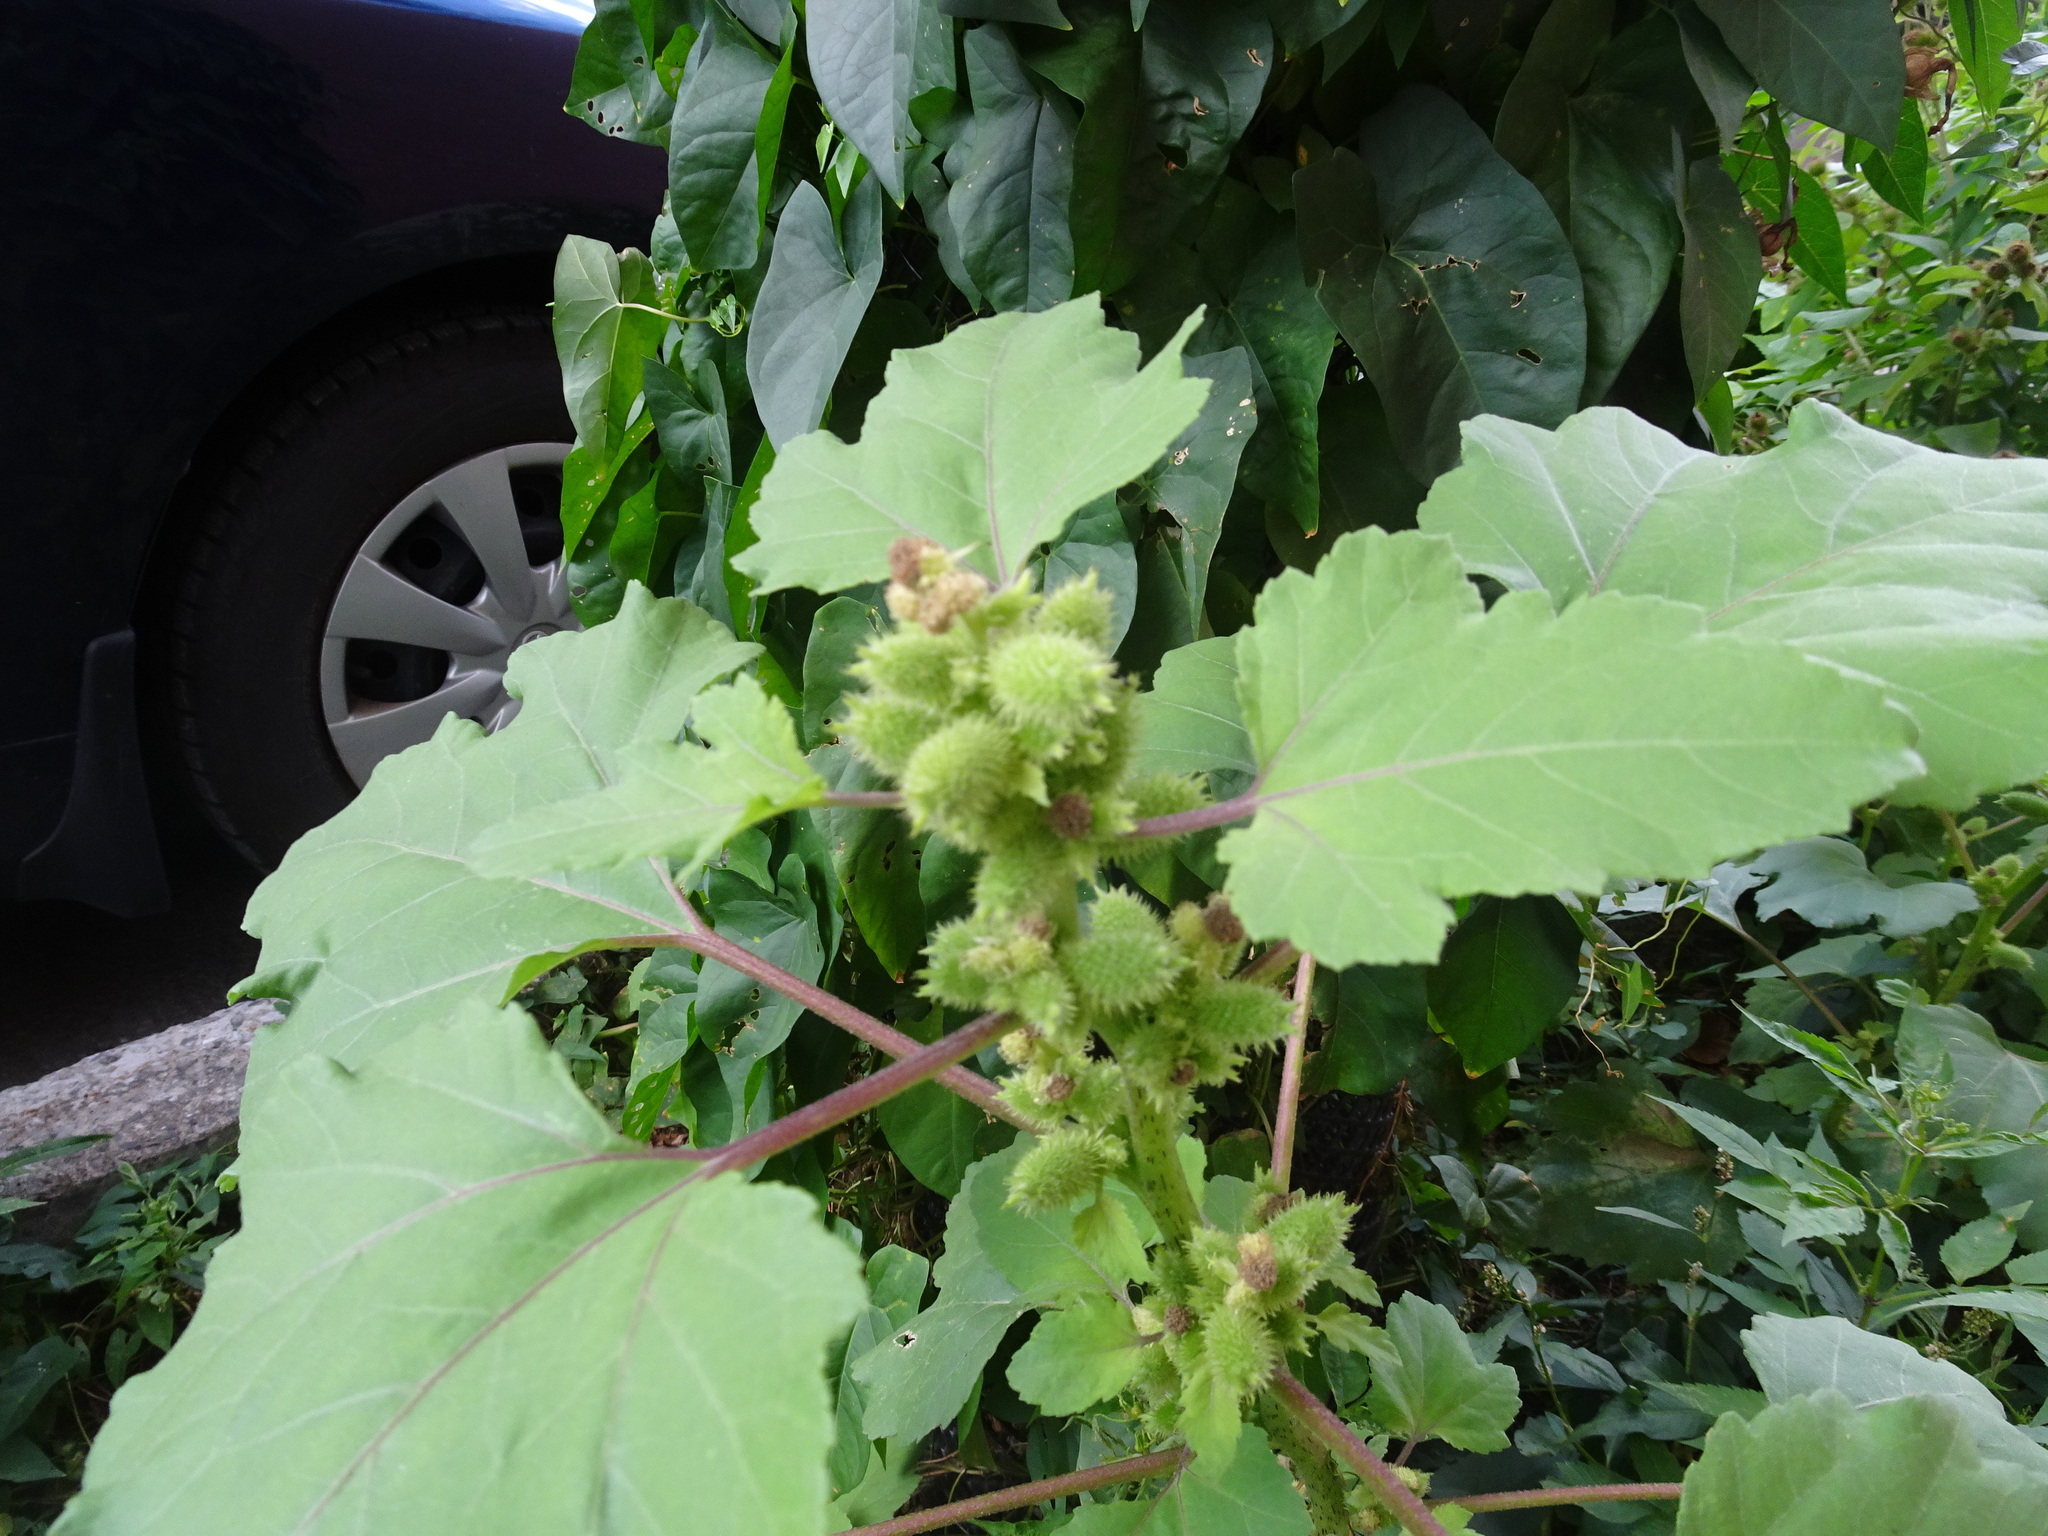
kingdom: Plantae
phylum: Tracheophyta
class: Magnoliopsida
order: Asterales
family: Asteraceae
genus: Xanthium
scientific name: Xanthium strumarium
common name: Rough cocklebur
